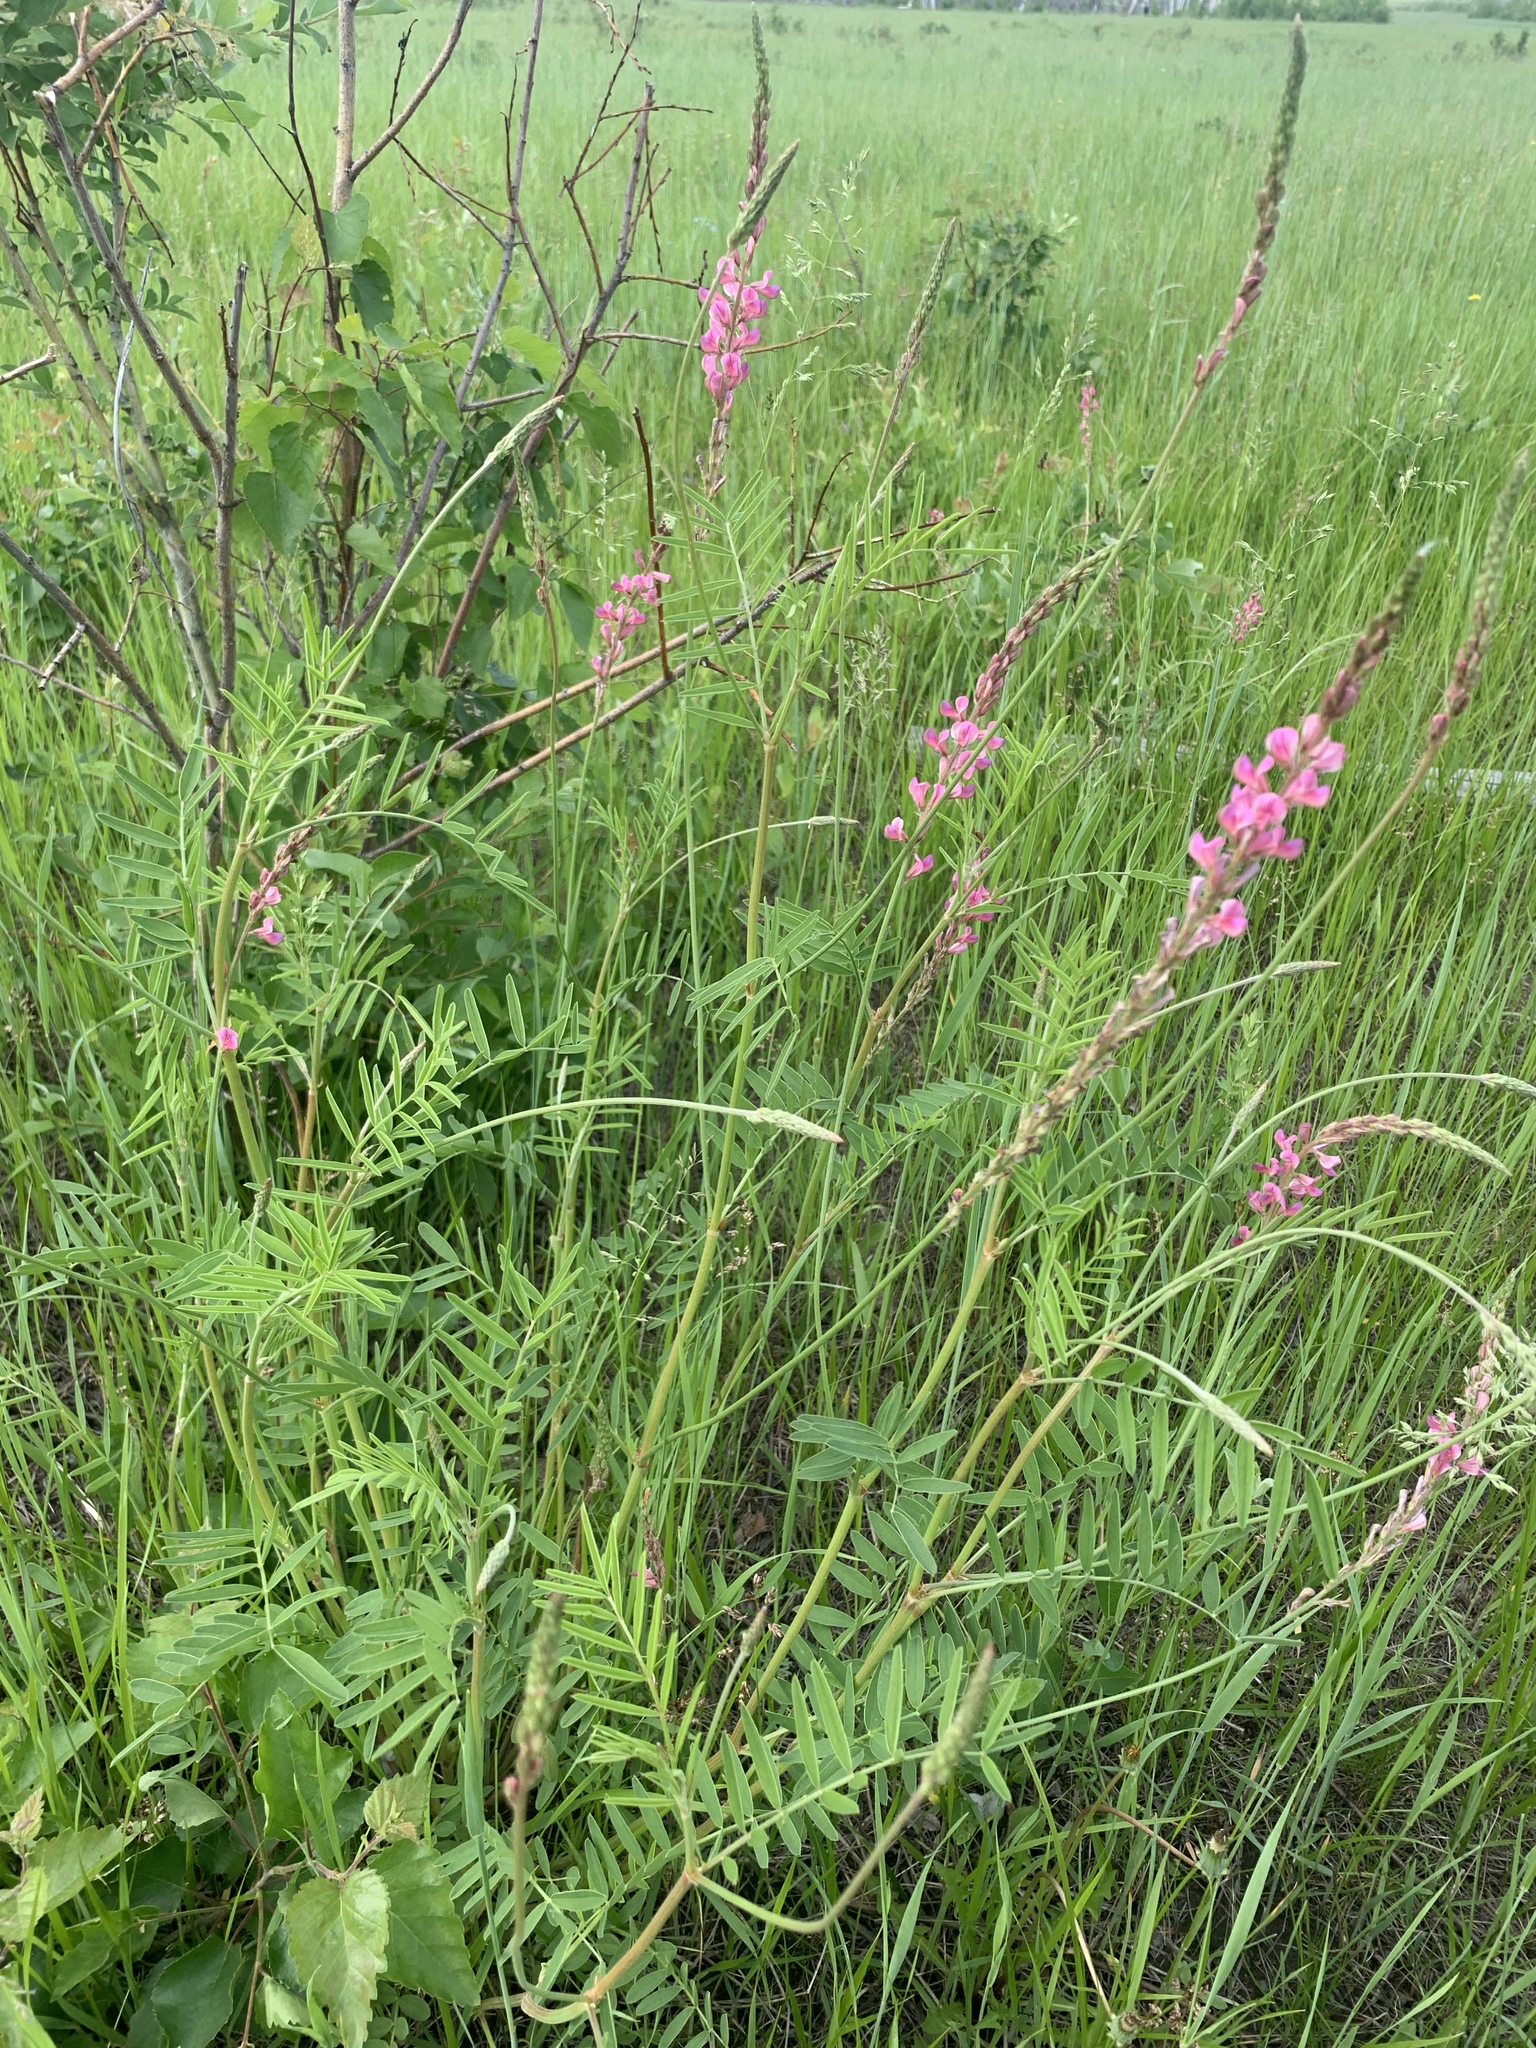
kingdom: Plantae
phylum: Tracheophyta
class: Magnoliopsida
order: Fabales
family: Fabaceae
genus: Onobrychis
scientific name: Onobrychis arenaria
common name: Sand esparcet
